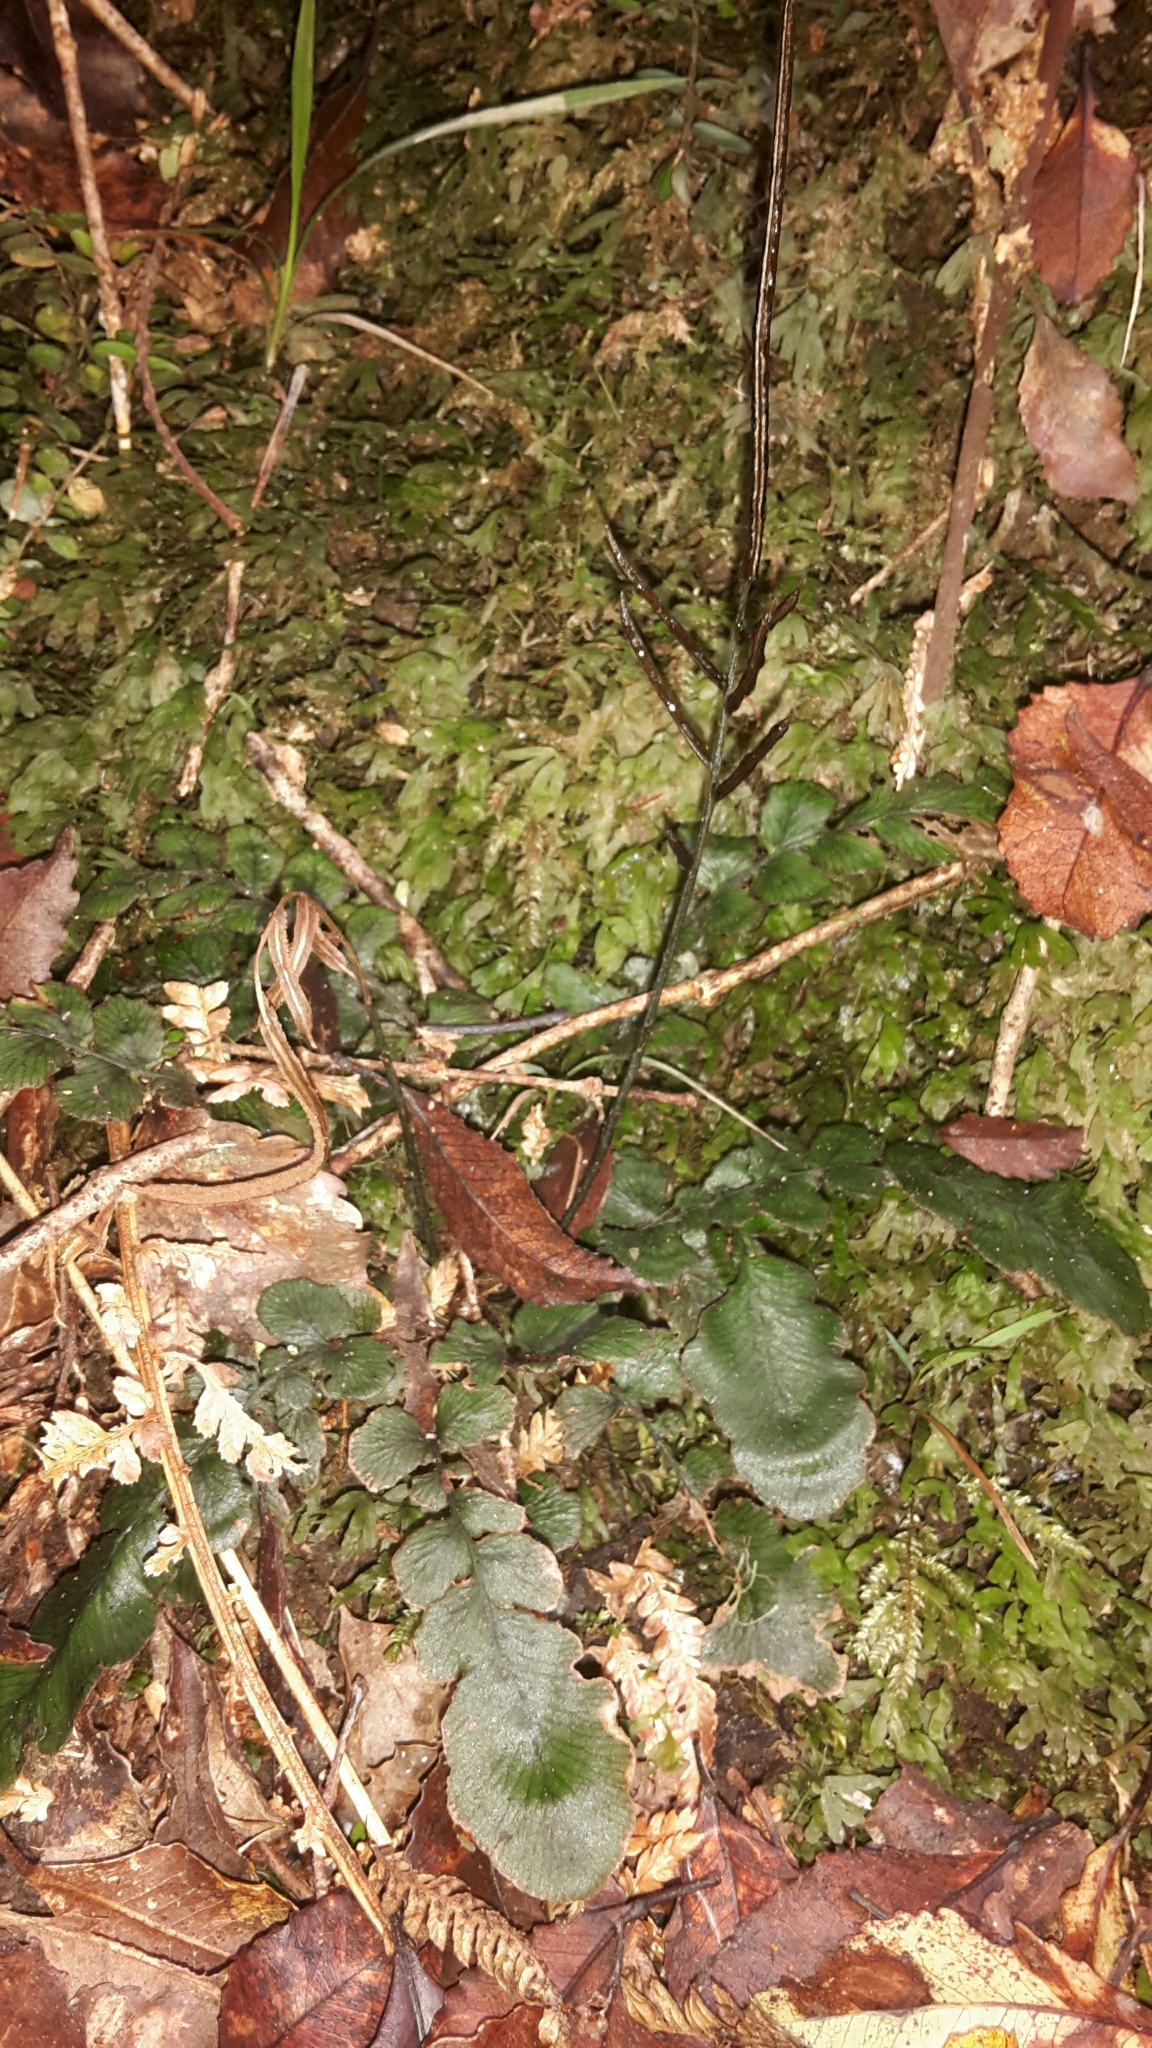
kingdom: Plantae
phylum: Tracheophyta
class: Polypodiopsida
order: Polypodiales
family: Blechnaceae
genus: Cranfillia
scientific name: Cranfillia nigra
